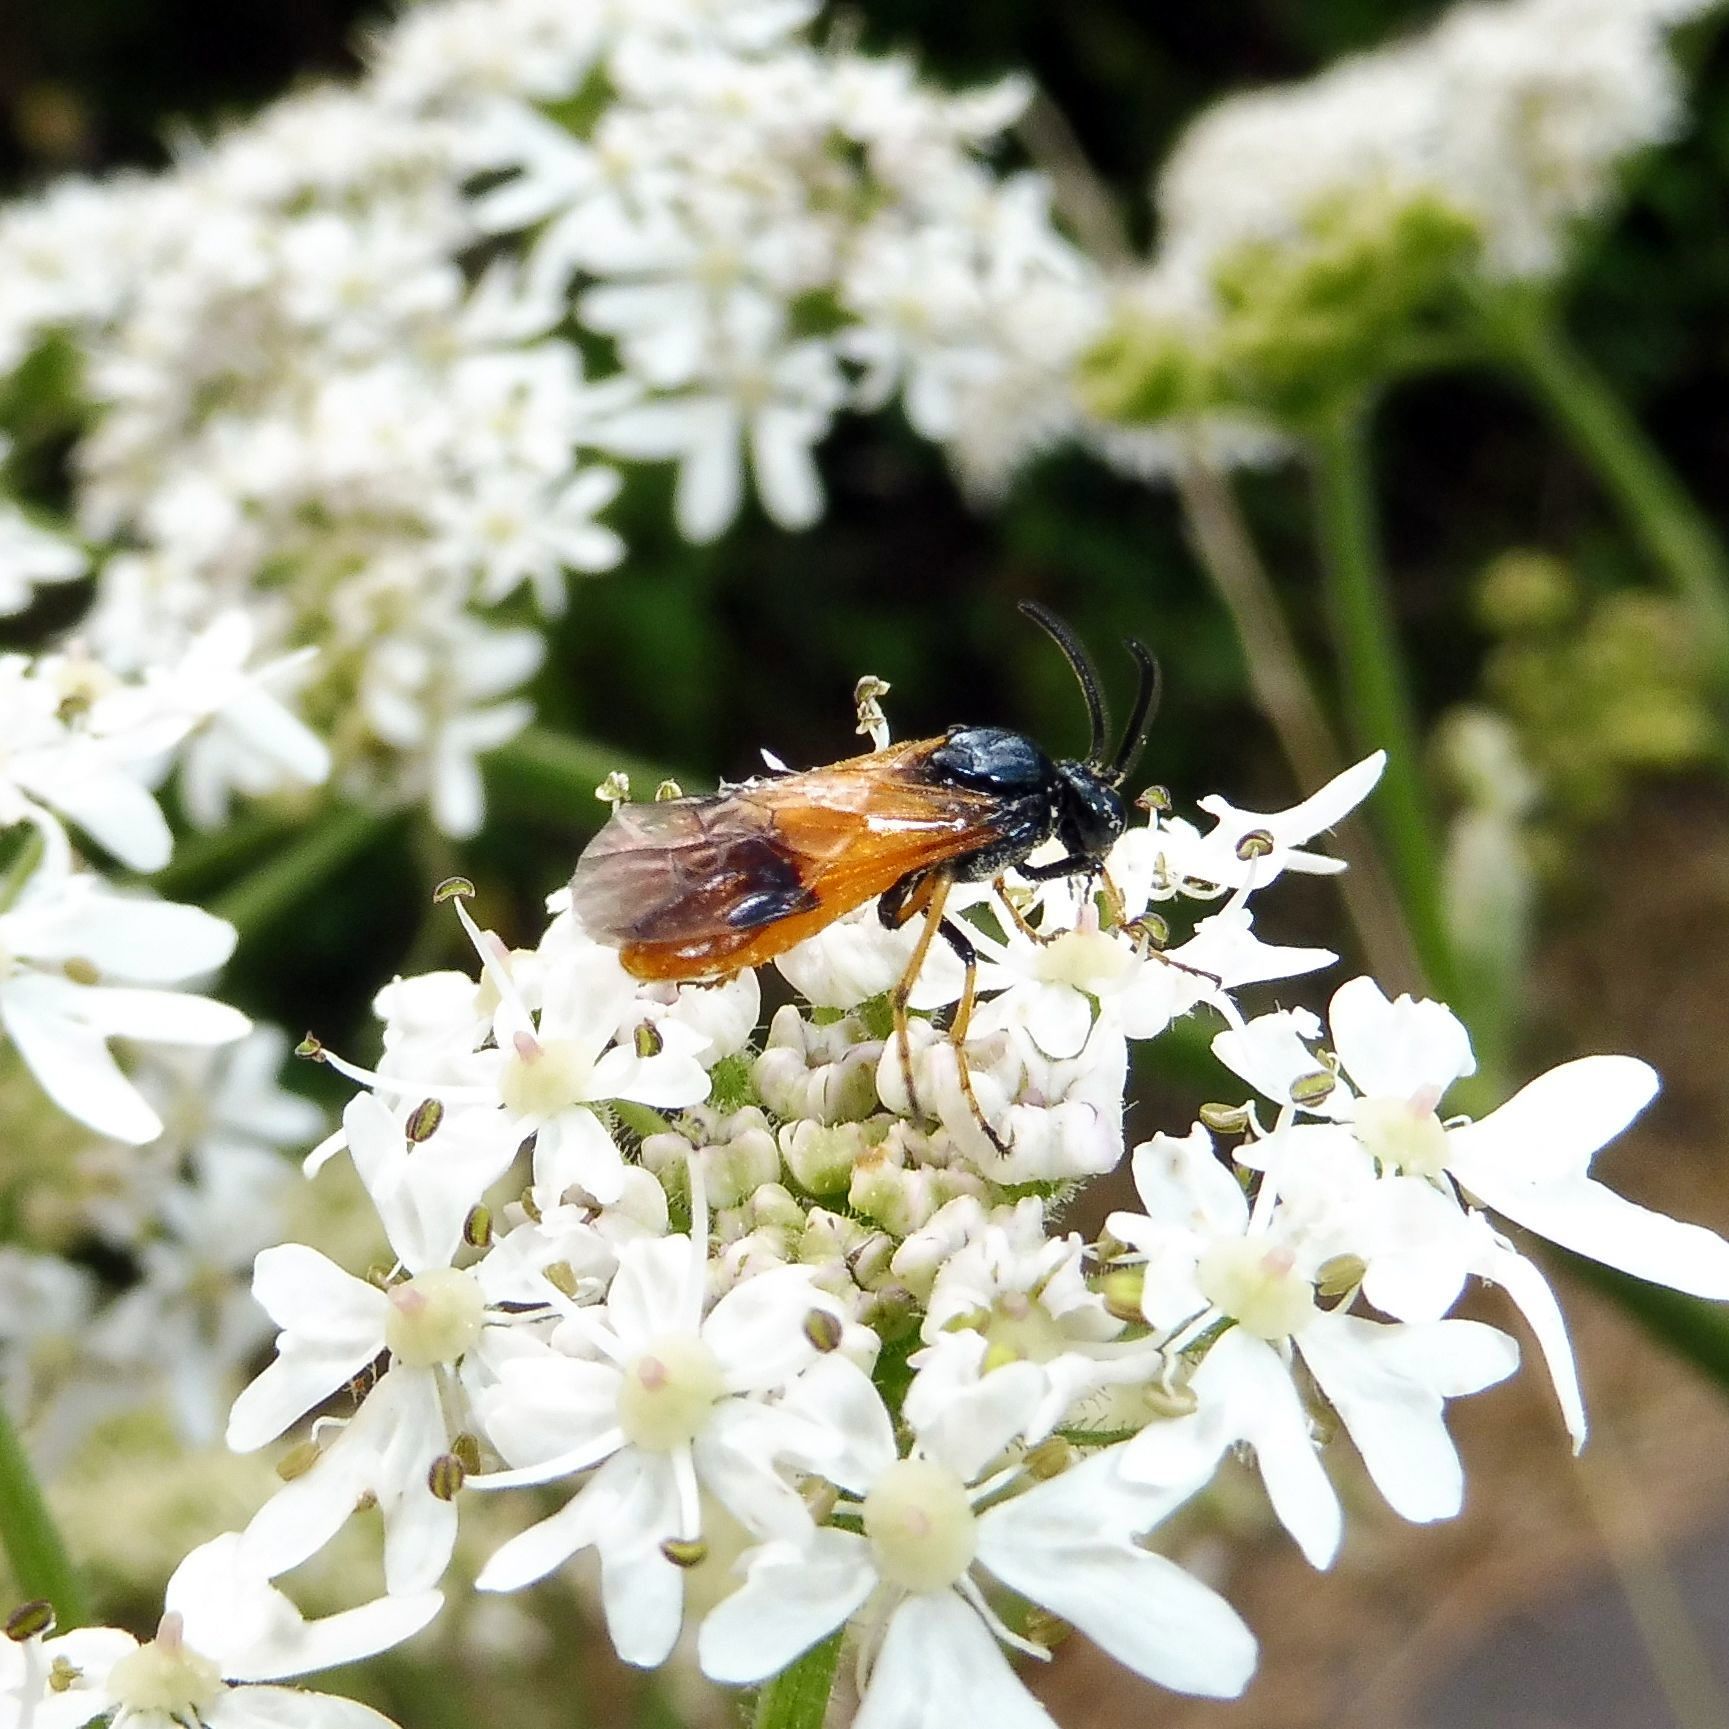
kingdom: Animalia
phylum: Arthropoda
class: Insecta
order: Hymenoptera
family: Argidae
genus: Arge
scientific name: Arge cyanocrocea
